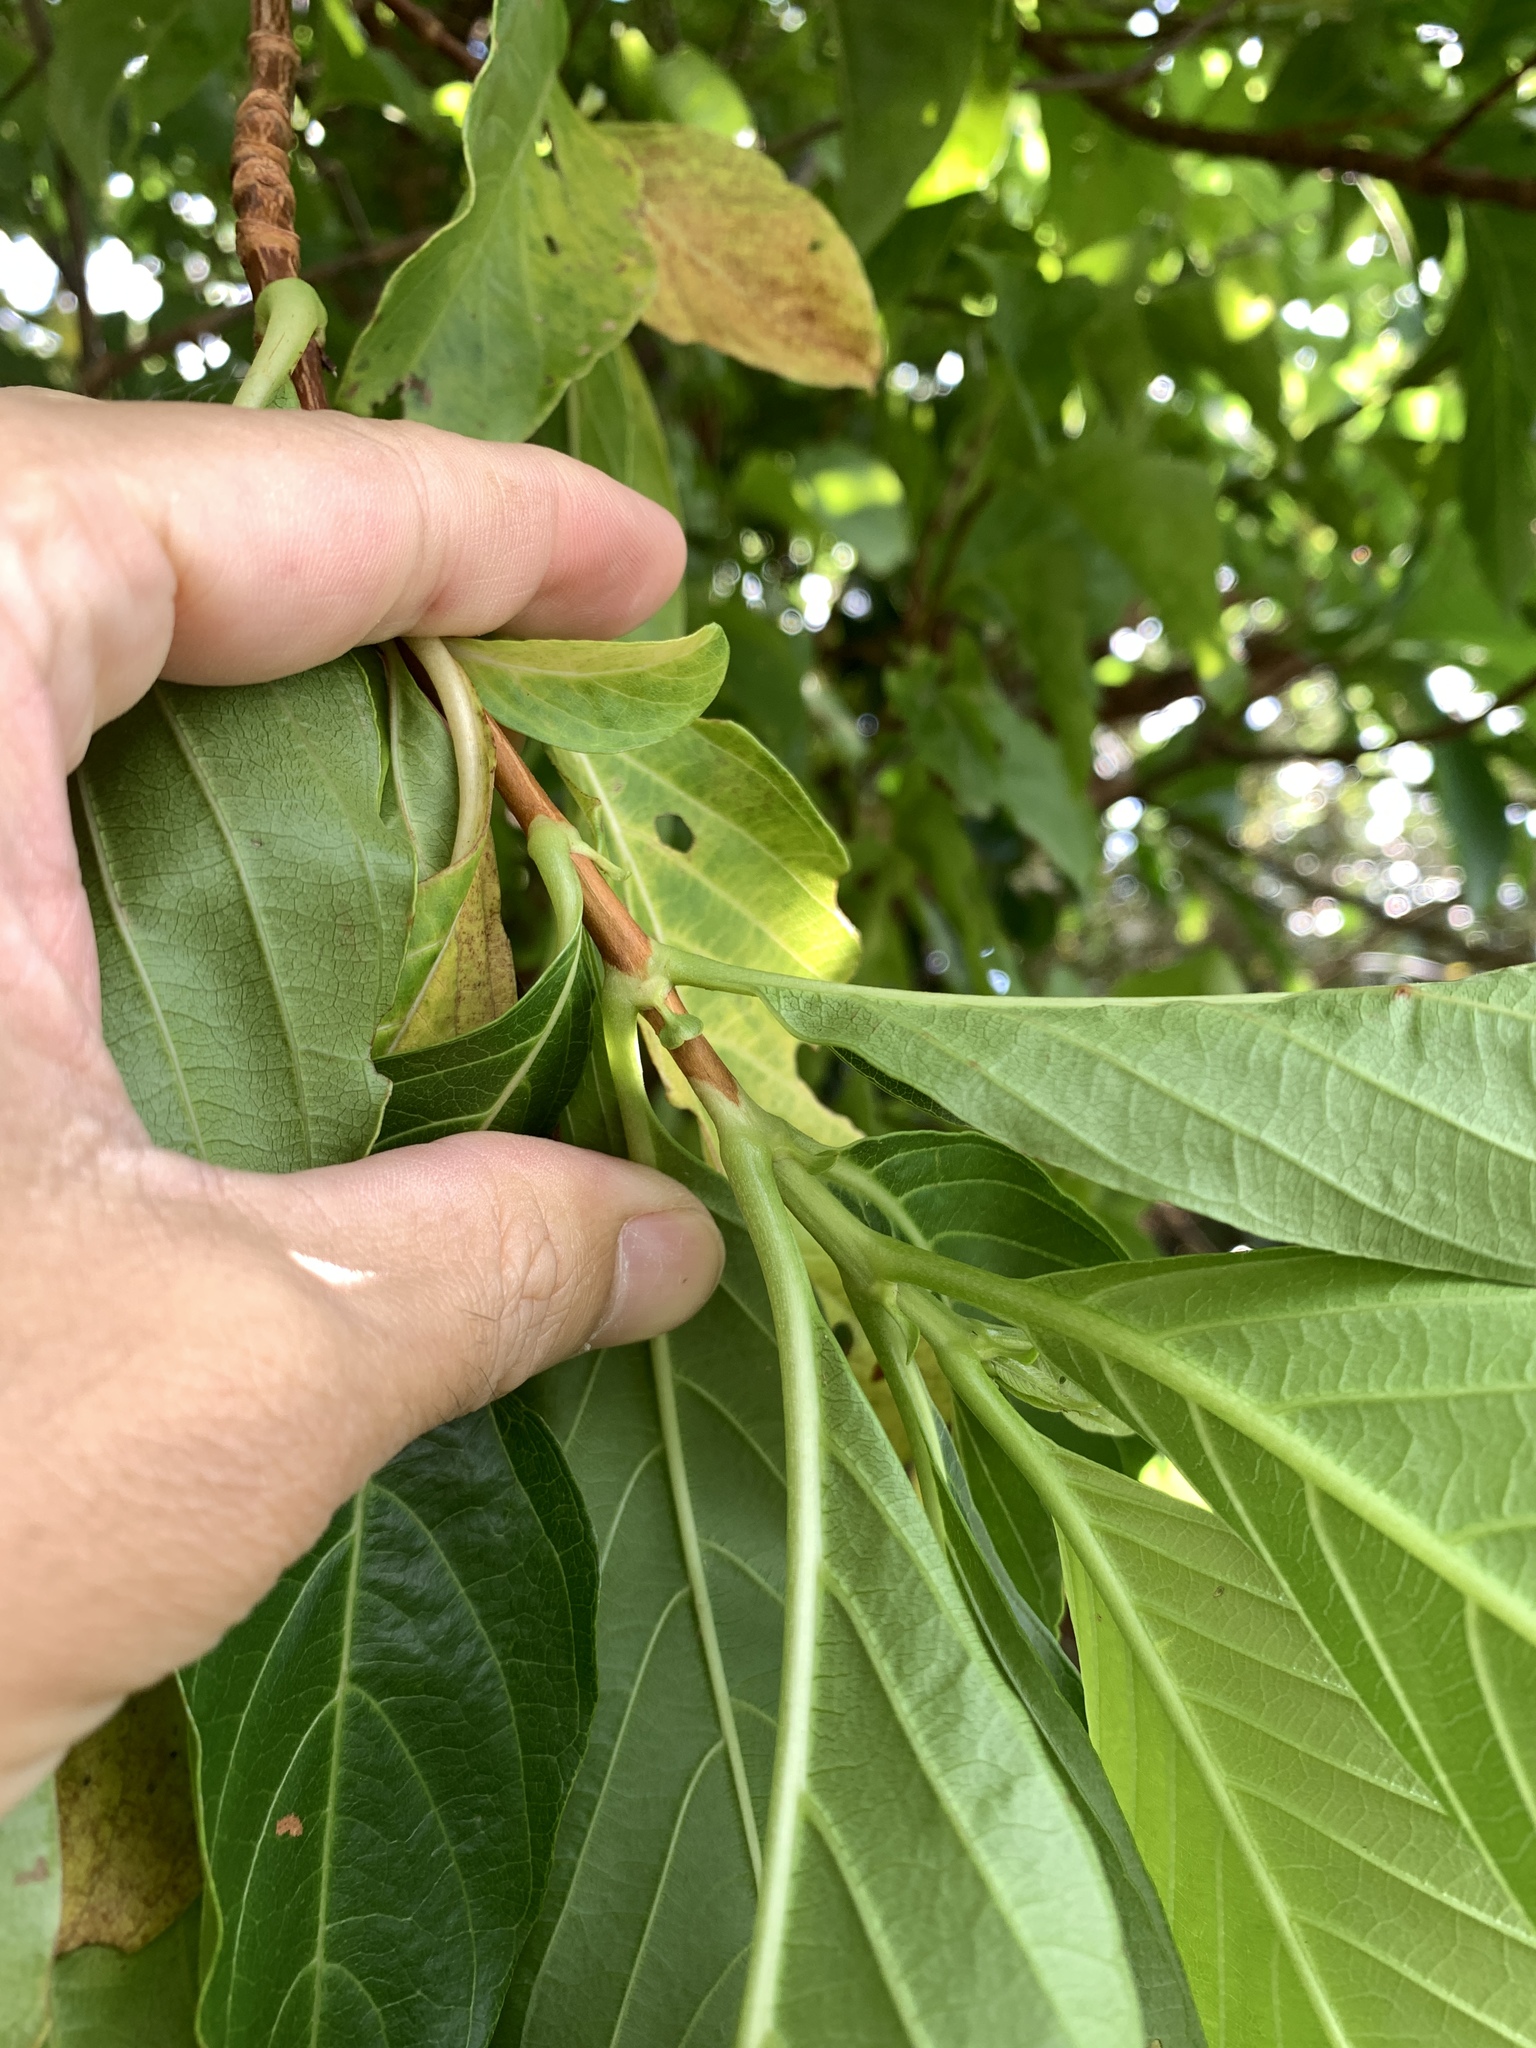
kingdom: Plantae
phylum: Tracheophyta
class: Magnoliopsida
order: Gentianales
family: Rubiaceae
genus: Wendlandia
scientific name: Wendlandia luzoniensis
